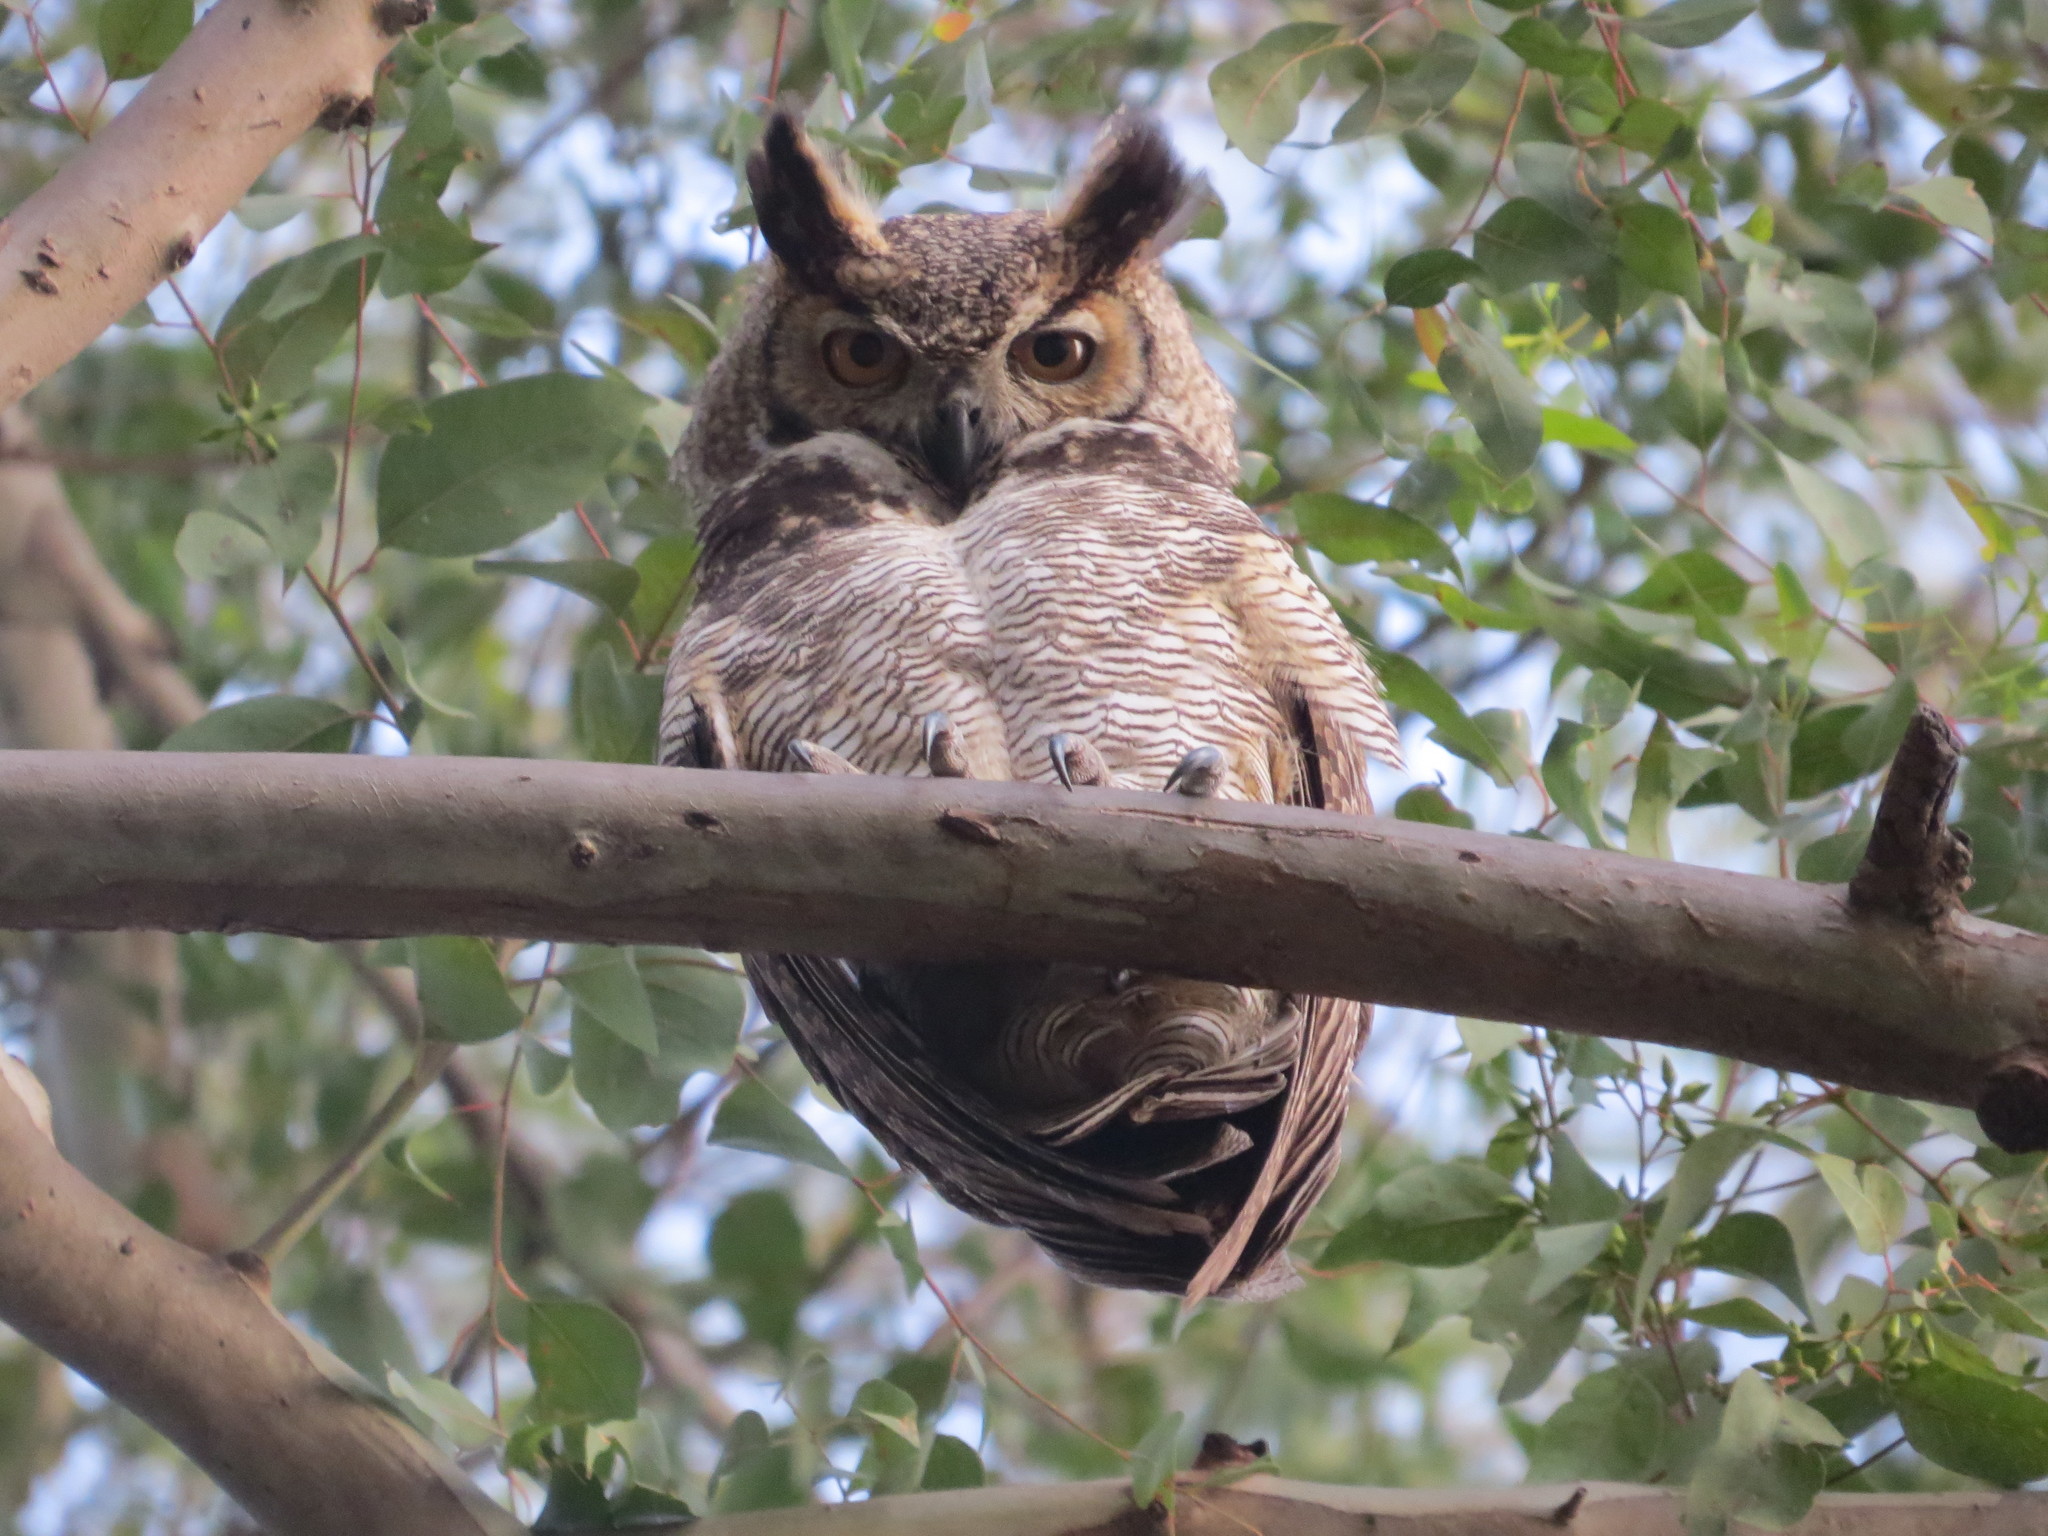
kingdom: Animalia
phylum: Chordata
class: Aves
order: Strigiformes
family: Strigidae
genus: Bubo
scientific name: Bubo virginianus
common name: Great horned owl
